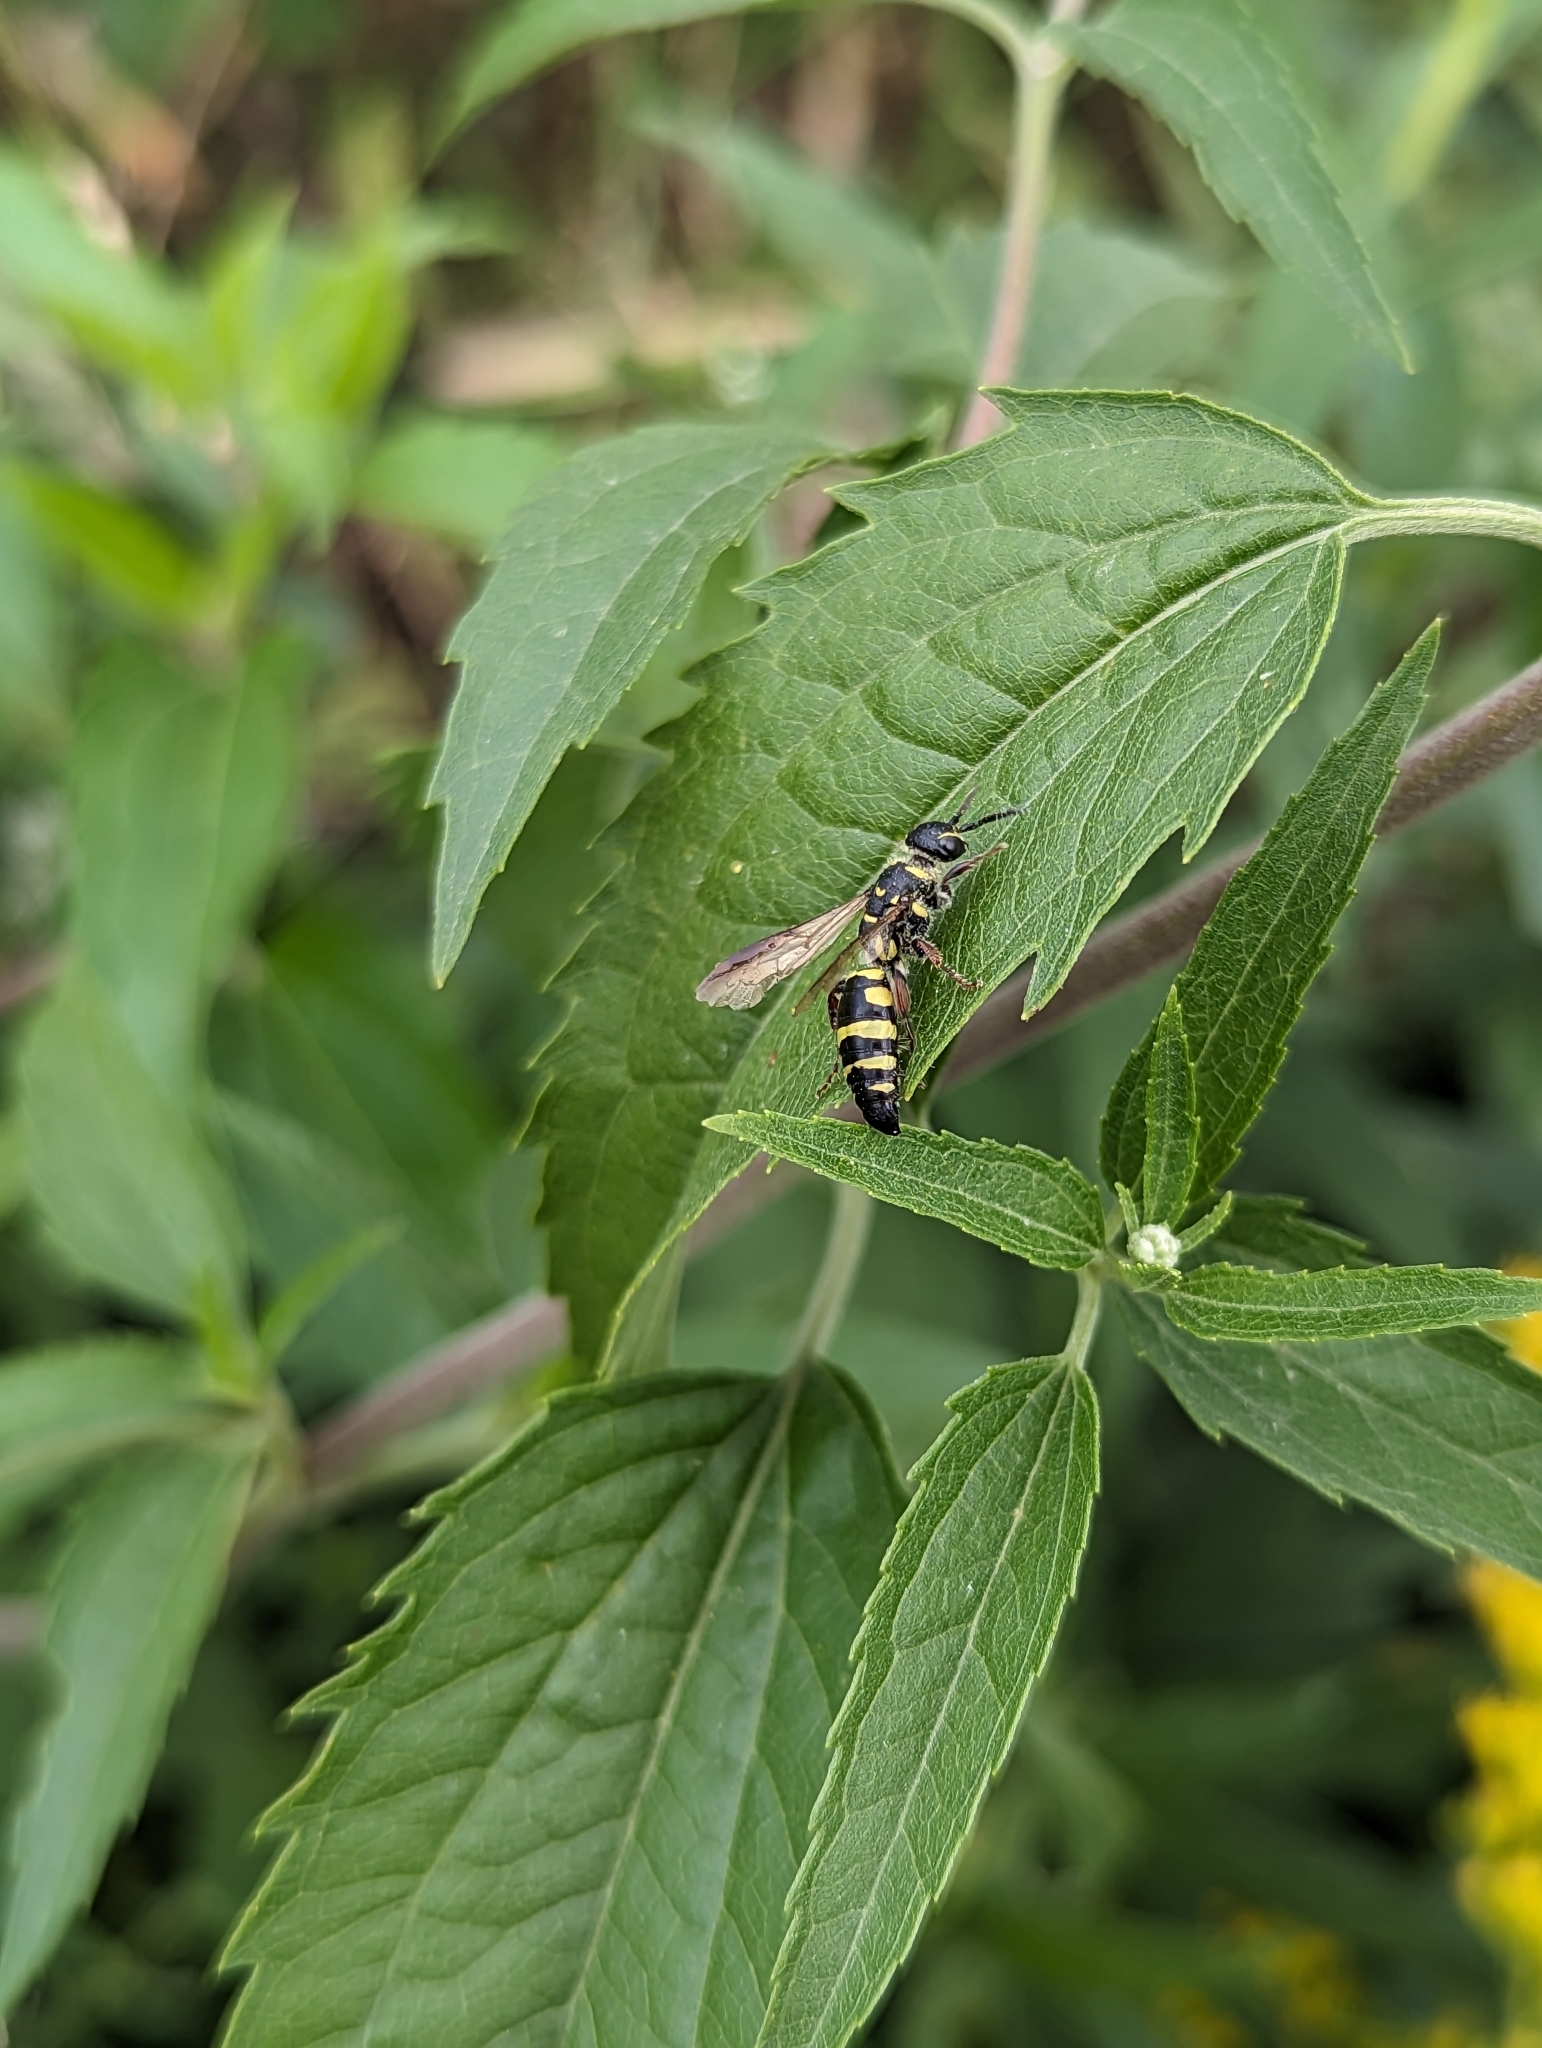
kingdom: Animalia
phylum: Arthropoda
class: Insecta
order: Hymenoptera
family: Tiphiidae
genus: Myzinum
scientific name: Myzinum maculatum
